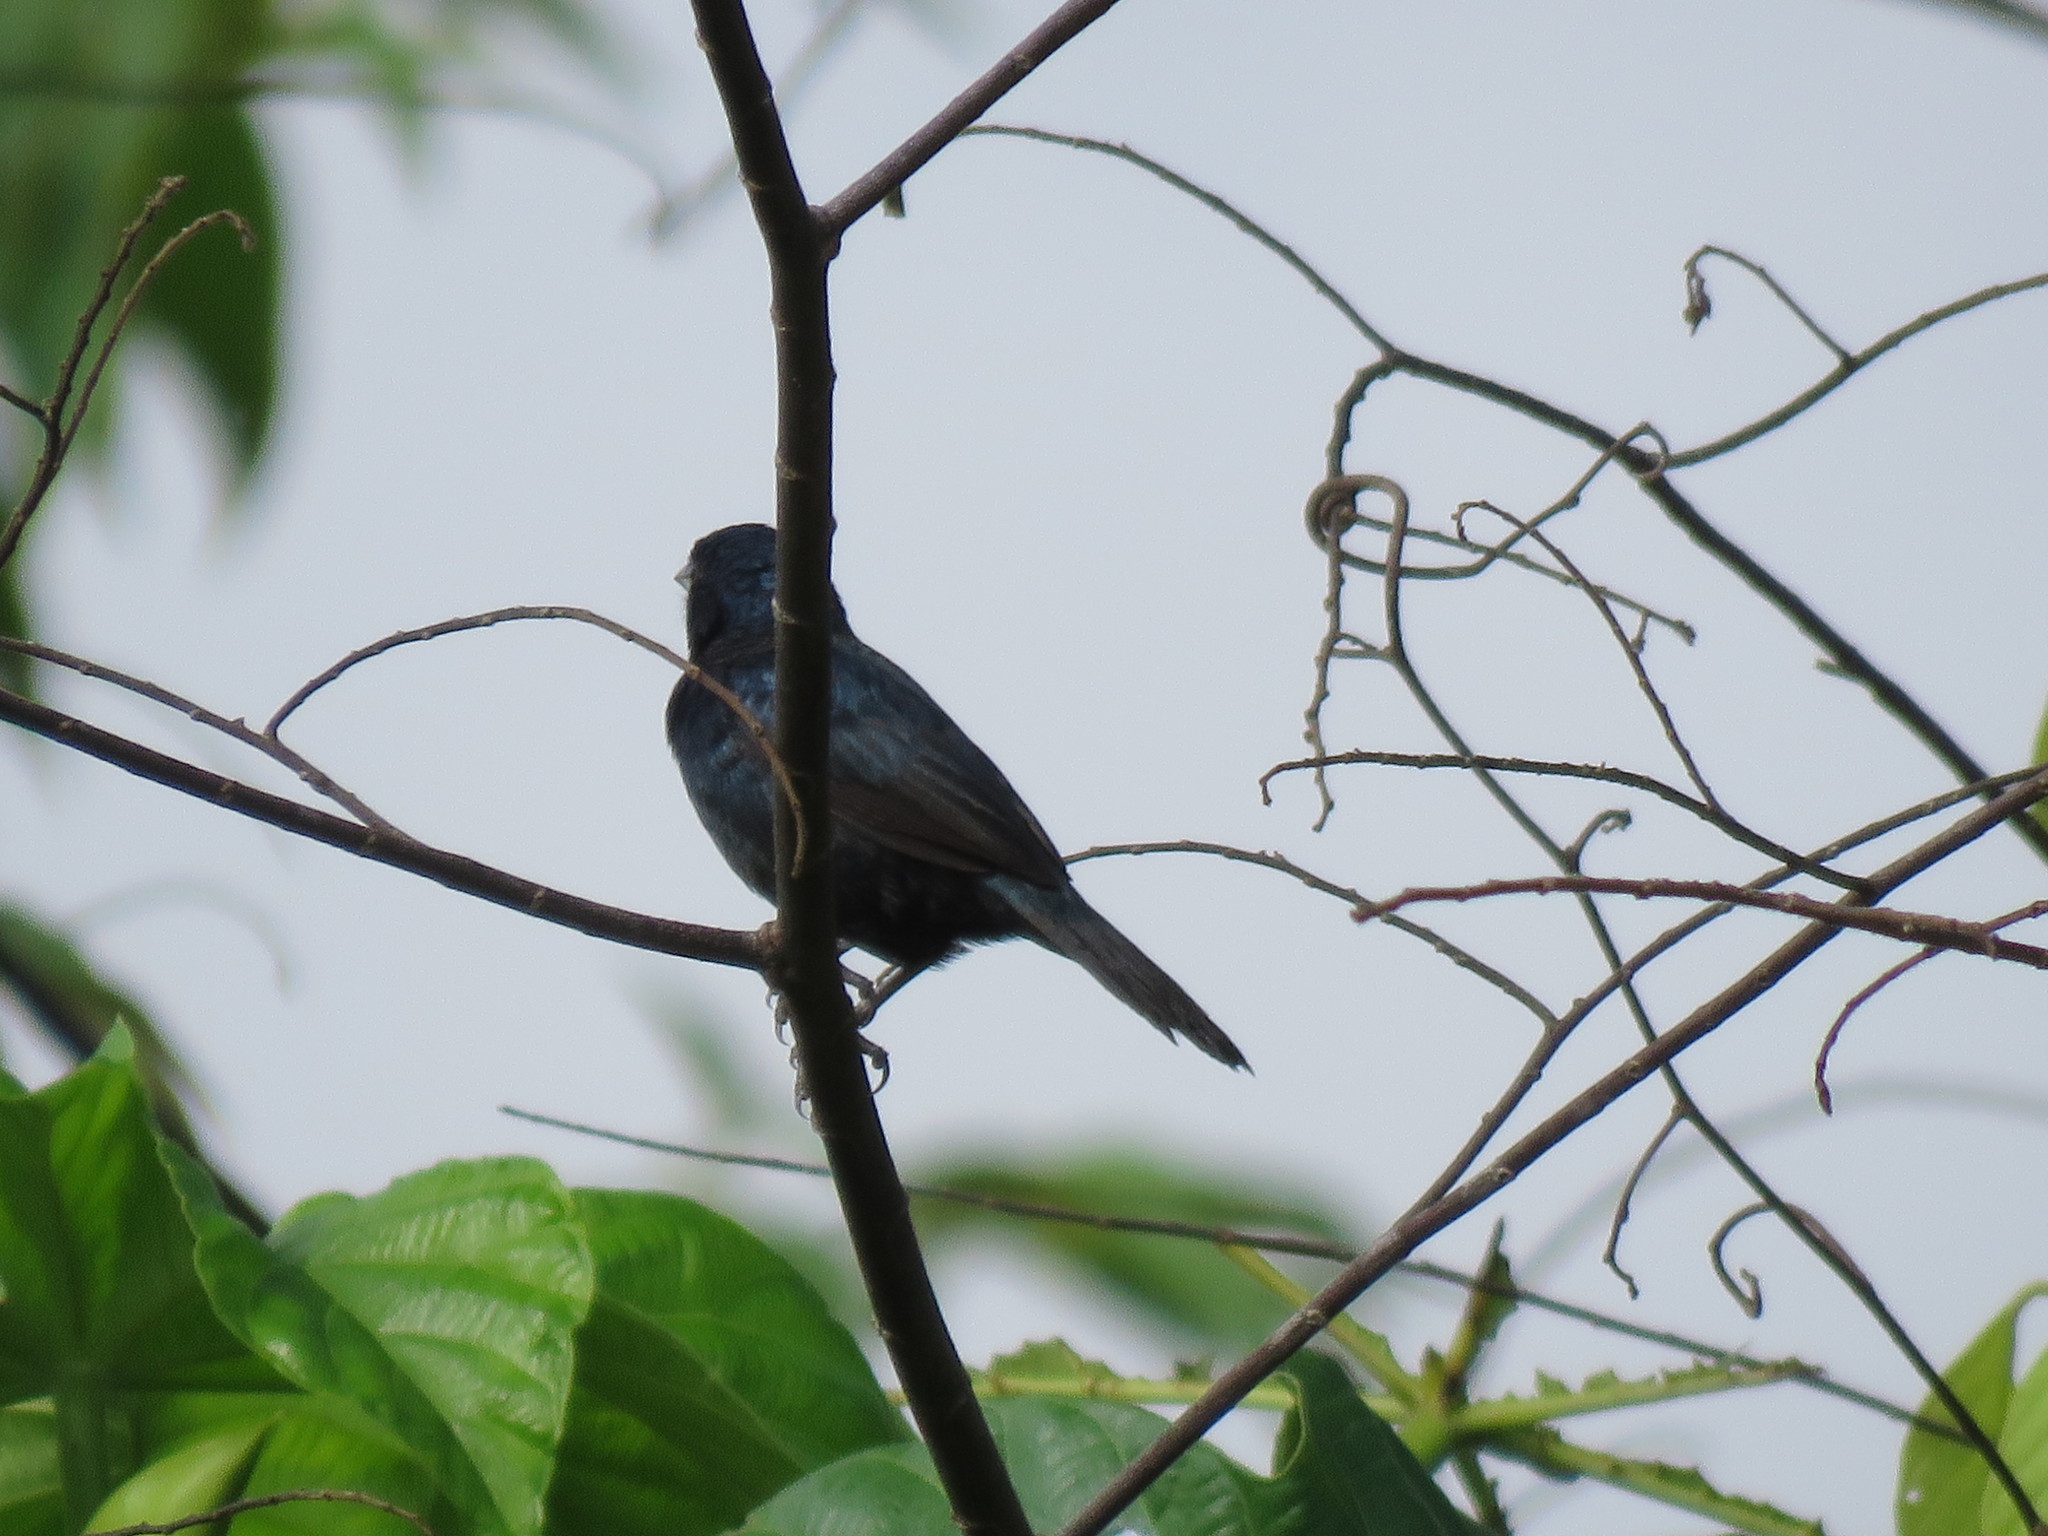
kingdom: Animalia
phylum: Chordata
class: Aves
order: Passeriformes
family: Thraupidae
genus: Volatinia
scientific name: Volatinia jacarina
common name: Blue-black grassquit
